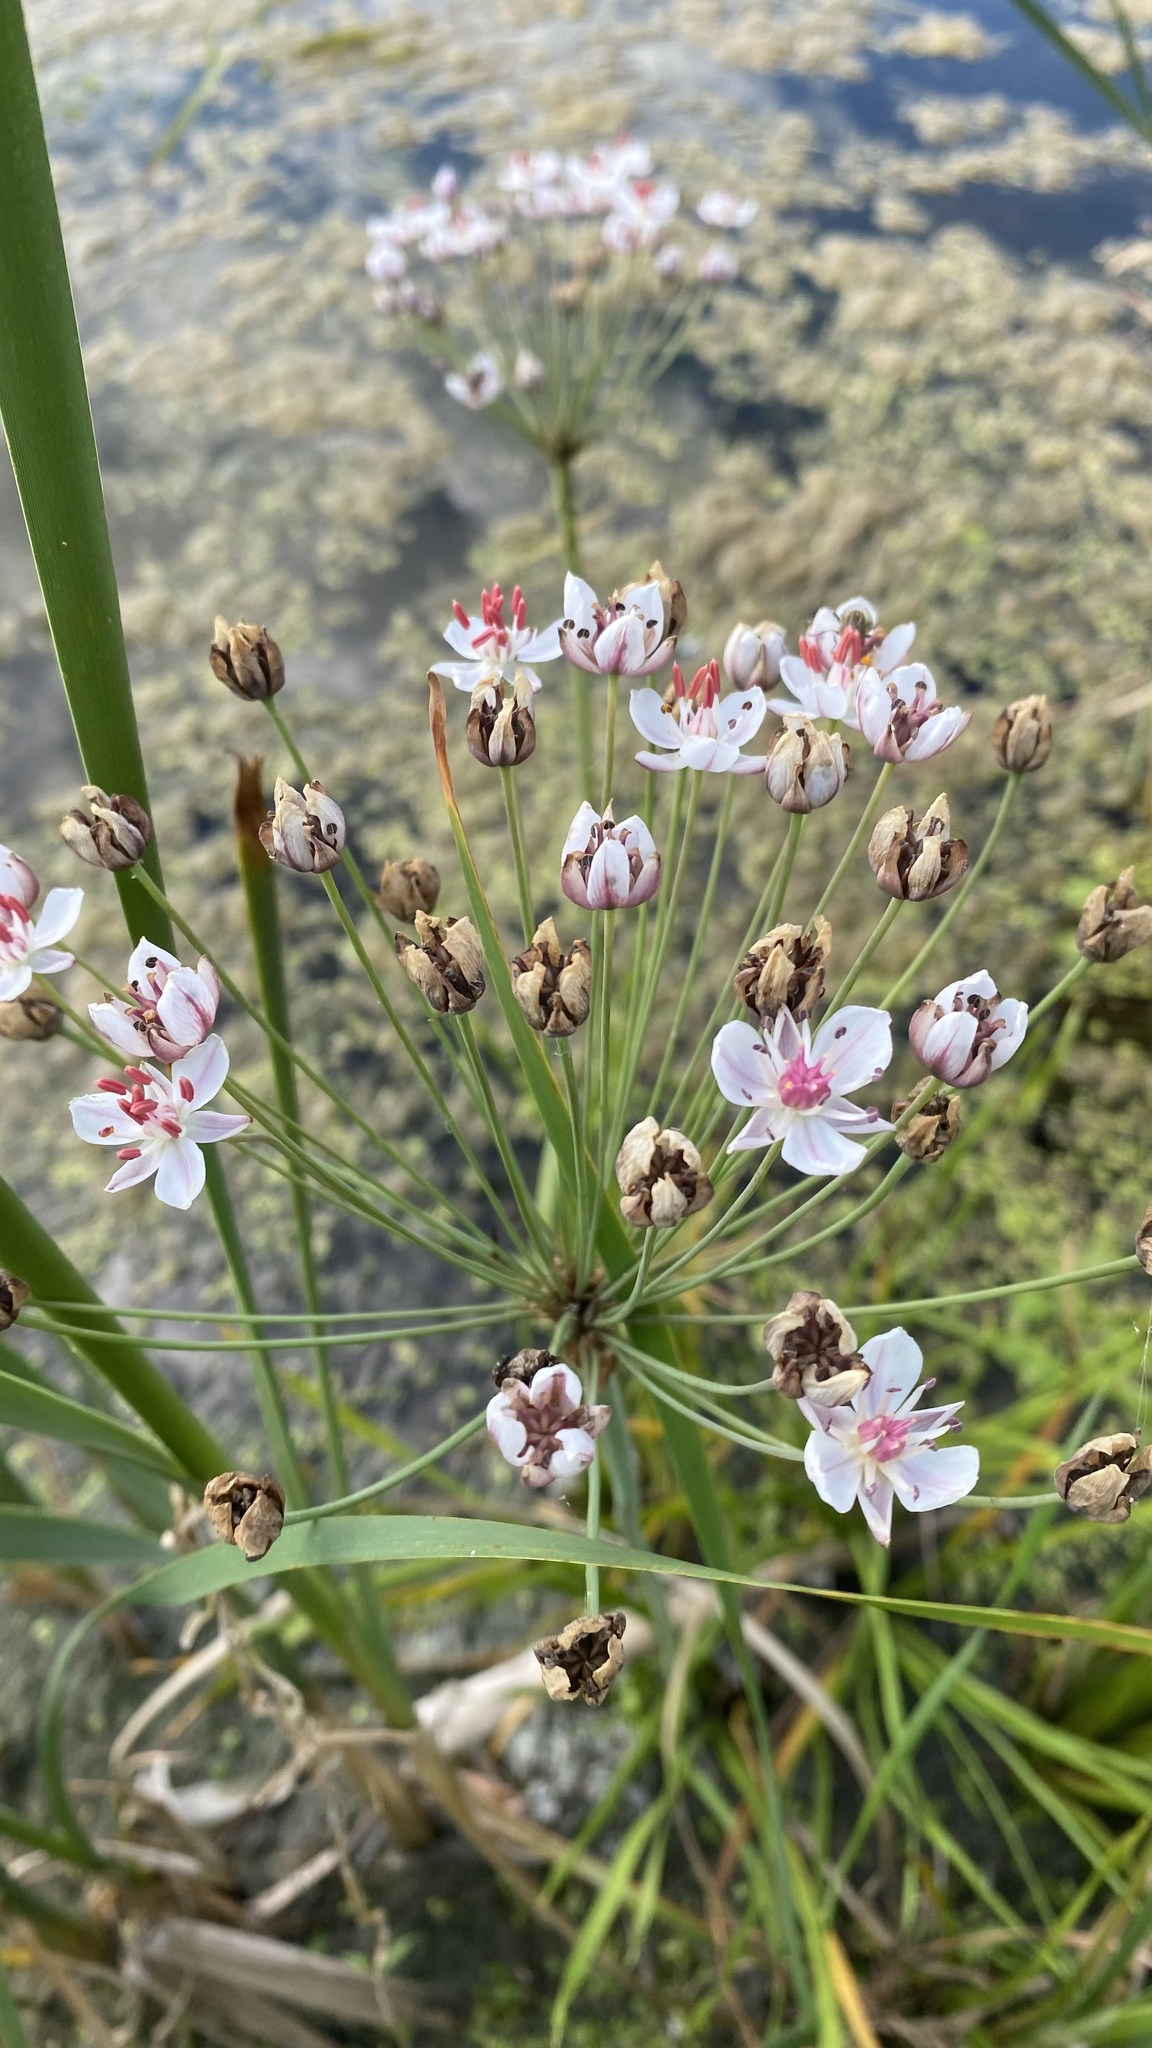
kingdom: Plantae
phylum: Tracheophyta
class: Liliopsida
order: Alismatales
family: Butomaceae
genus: Butomus
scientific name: Butomus umbellatus
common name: Flowering-rush
